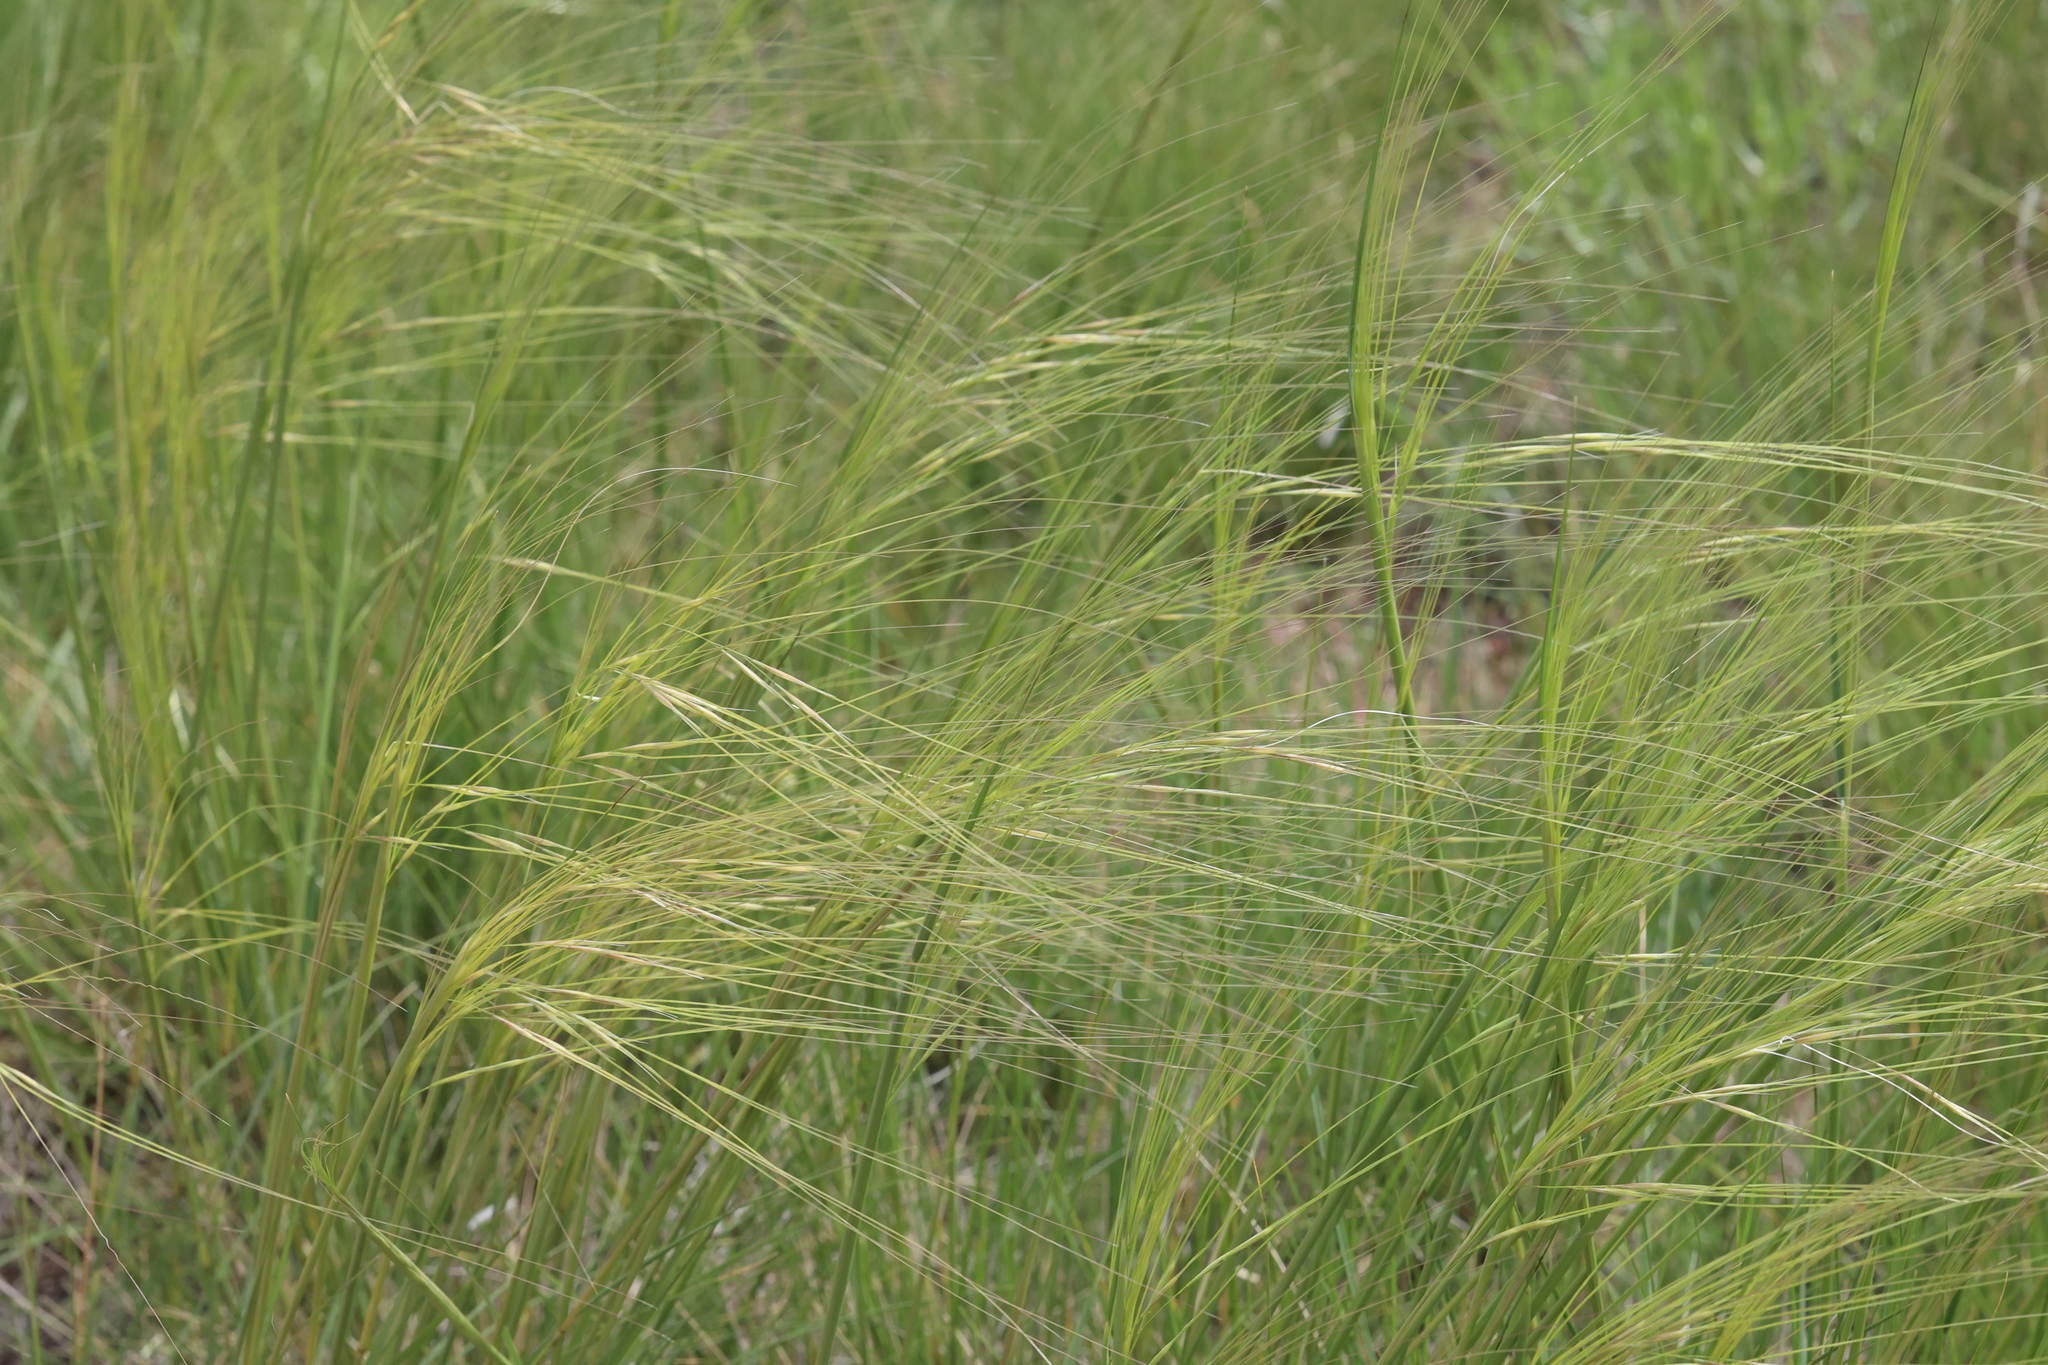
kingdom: Plantae
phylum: Tracheophyta
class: Liliopsida
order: Poales
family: Poaceae
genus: Hesperostipa
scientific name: Hesperostipa comata
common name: Needle-and-thread grass
